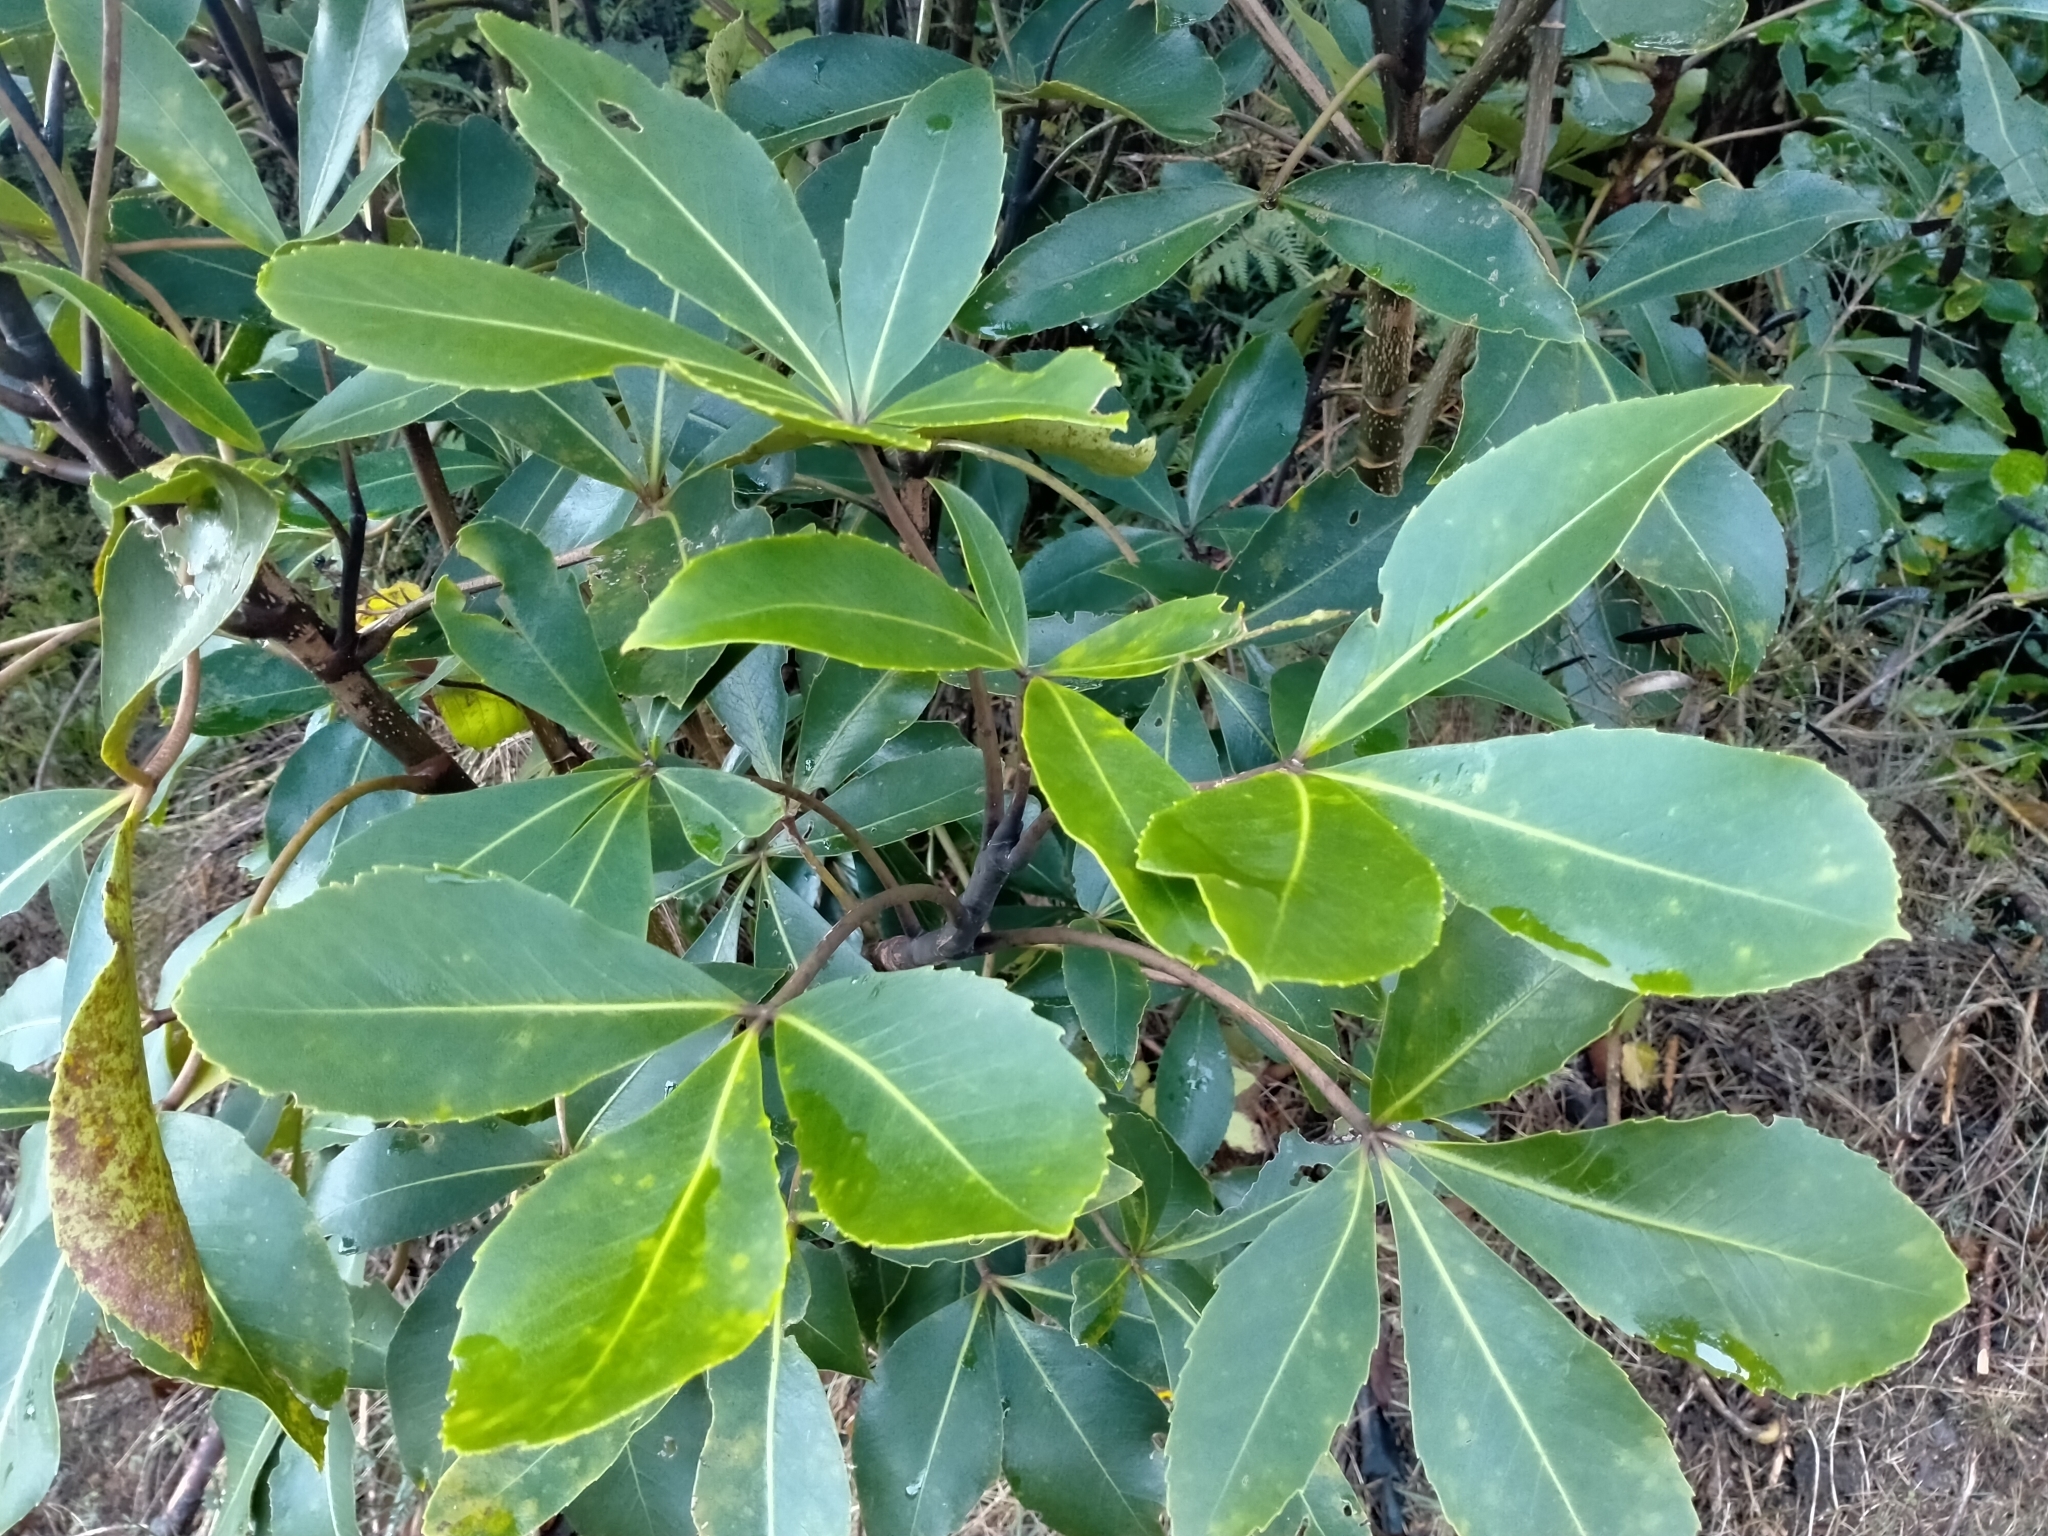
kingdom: Plantae
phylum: Tracheophyta
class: Magnoliopsida
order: Apiales
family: Araliaceae
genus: Neopanax
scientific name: Neopanax colensoi
